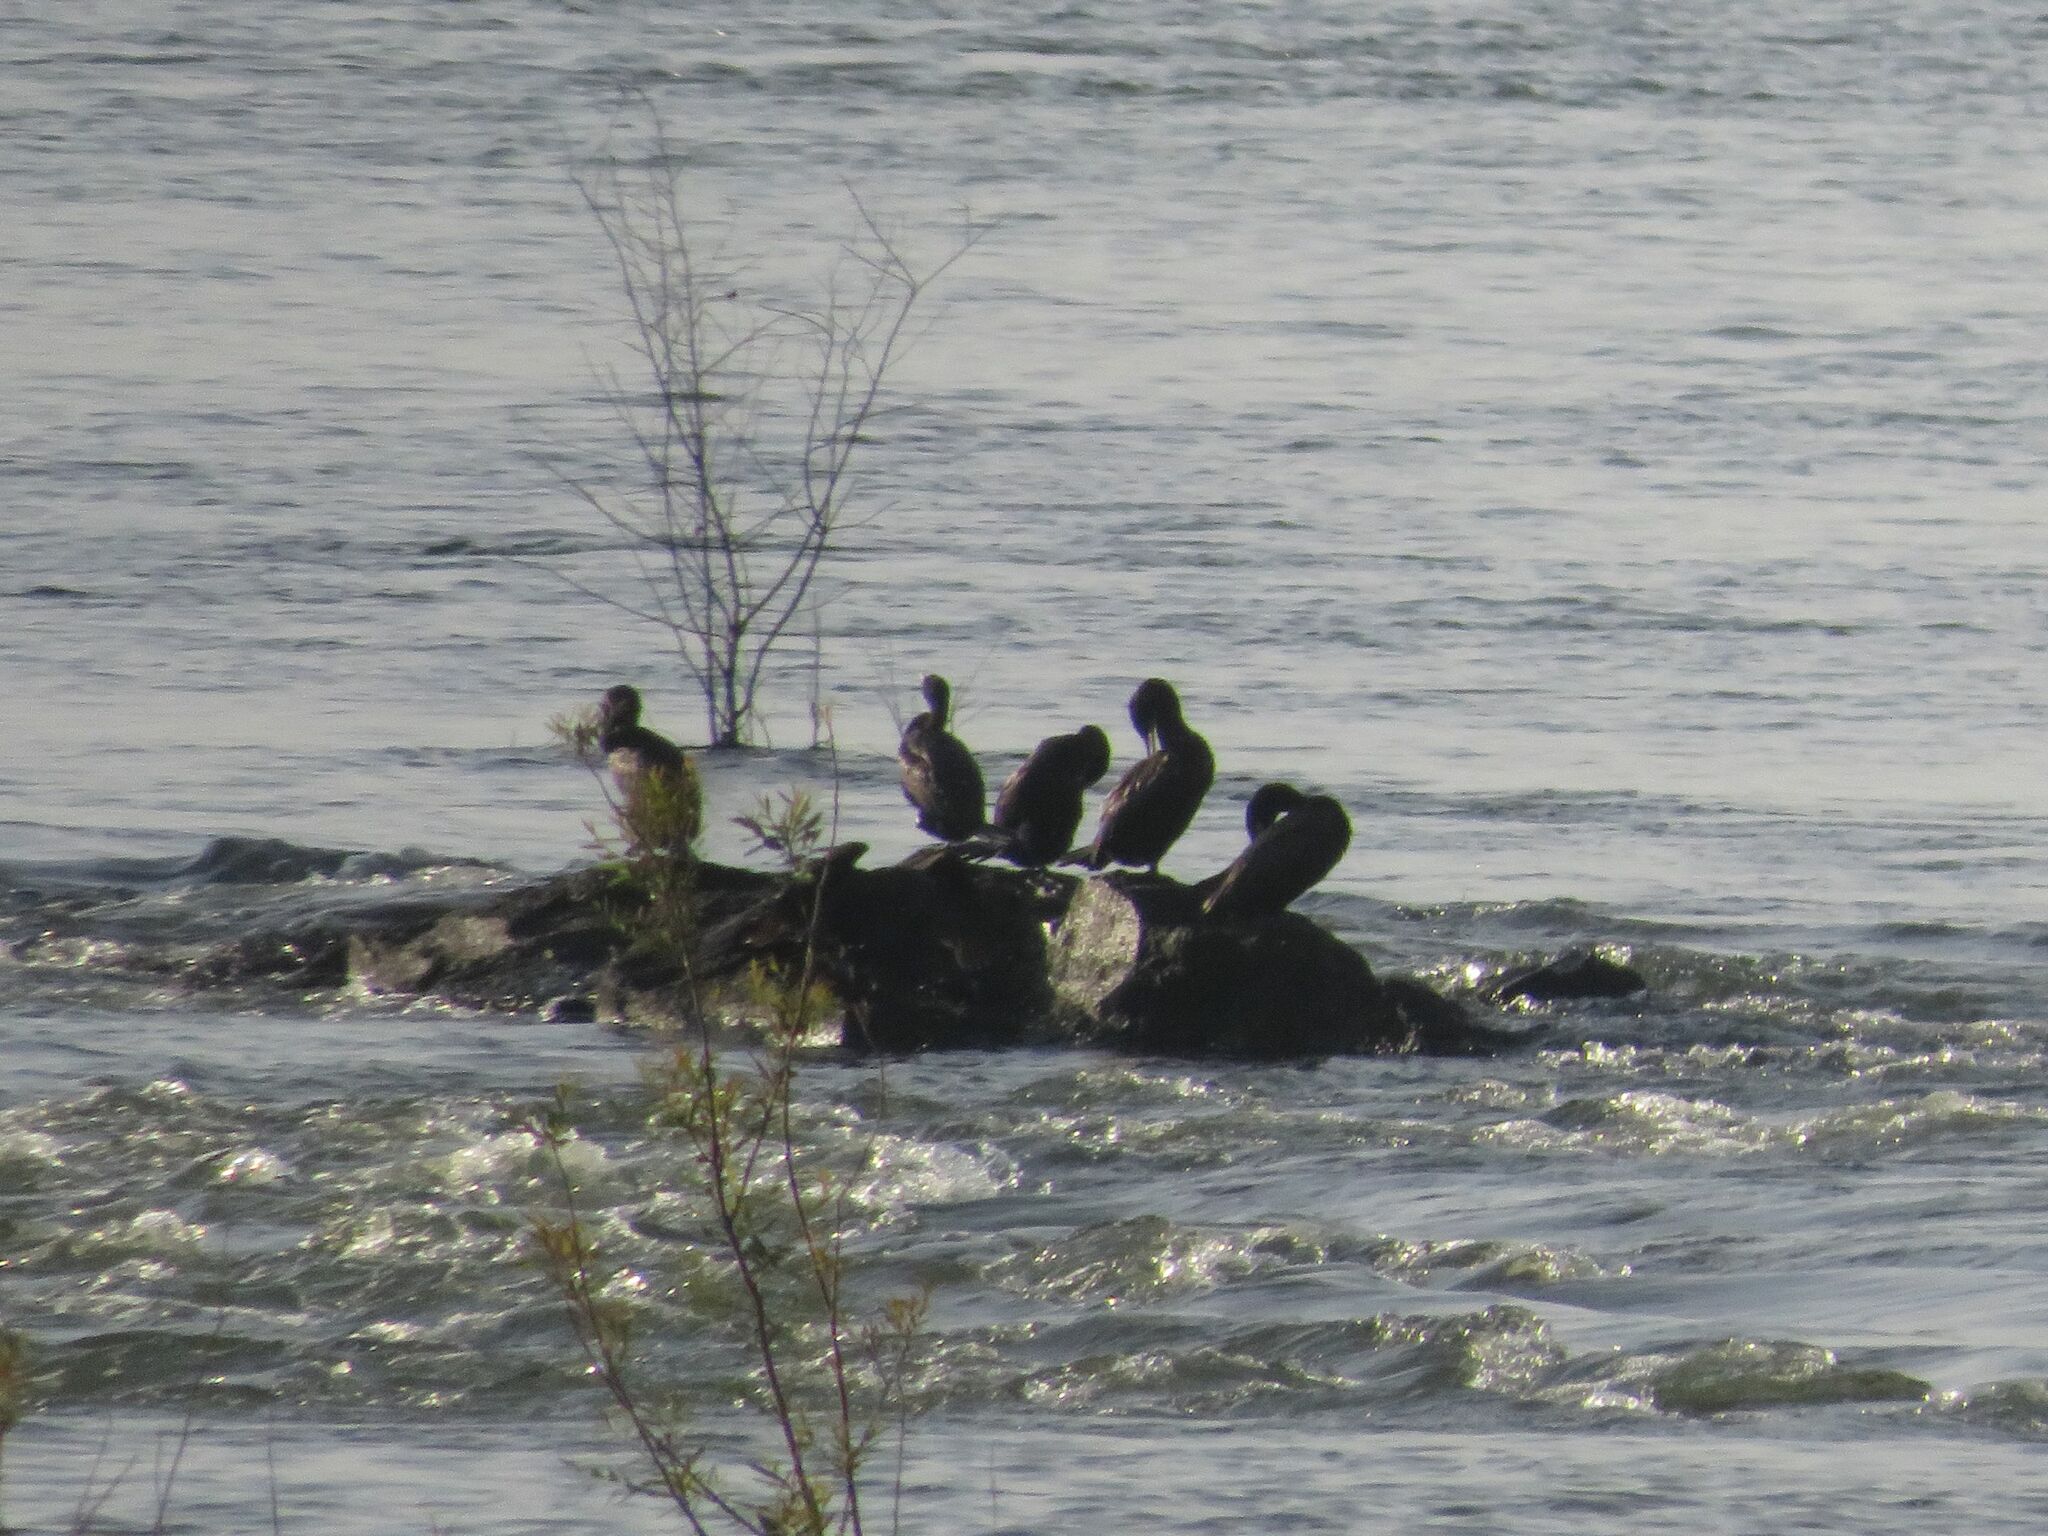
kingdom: Animalia
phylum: Chordata
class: Aves
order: Suliformes
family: Phalacrocoracidae
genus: Phalacrocorax
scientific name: Phalacrocorax brasilianus
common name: Neotropic cormorant
